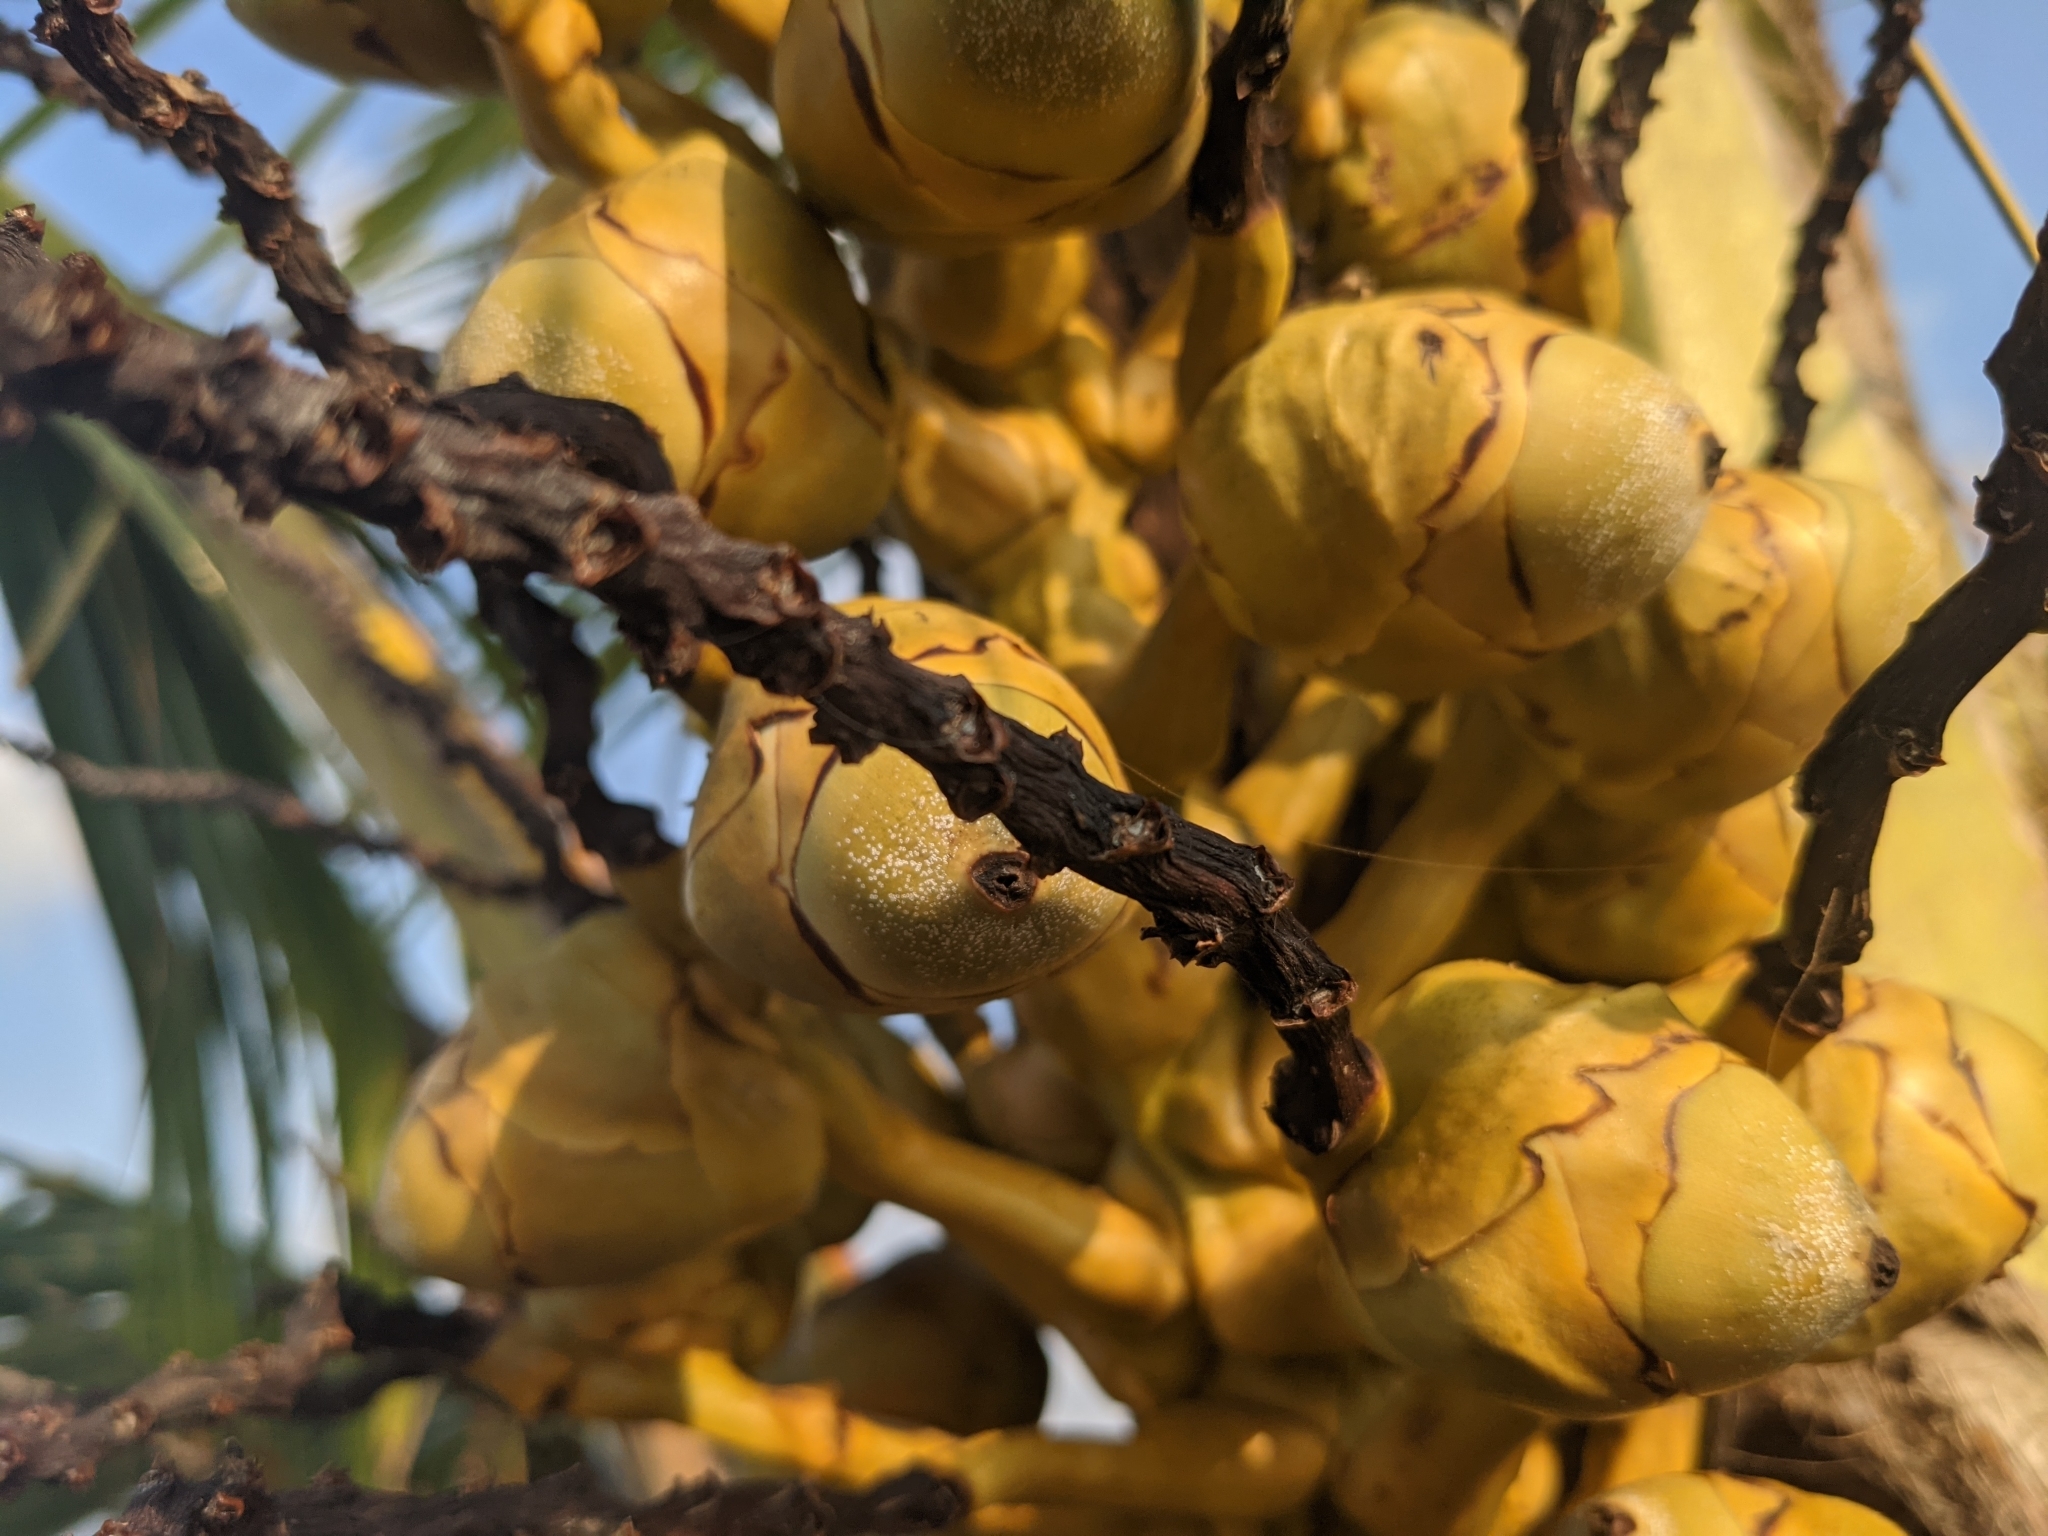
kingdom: Plantae
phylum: Tracheophyta
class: Liliopsida
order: Arecales
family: Arecaceae
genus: Cocos
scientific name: Cocos nucifera
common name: Coconut palm
